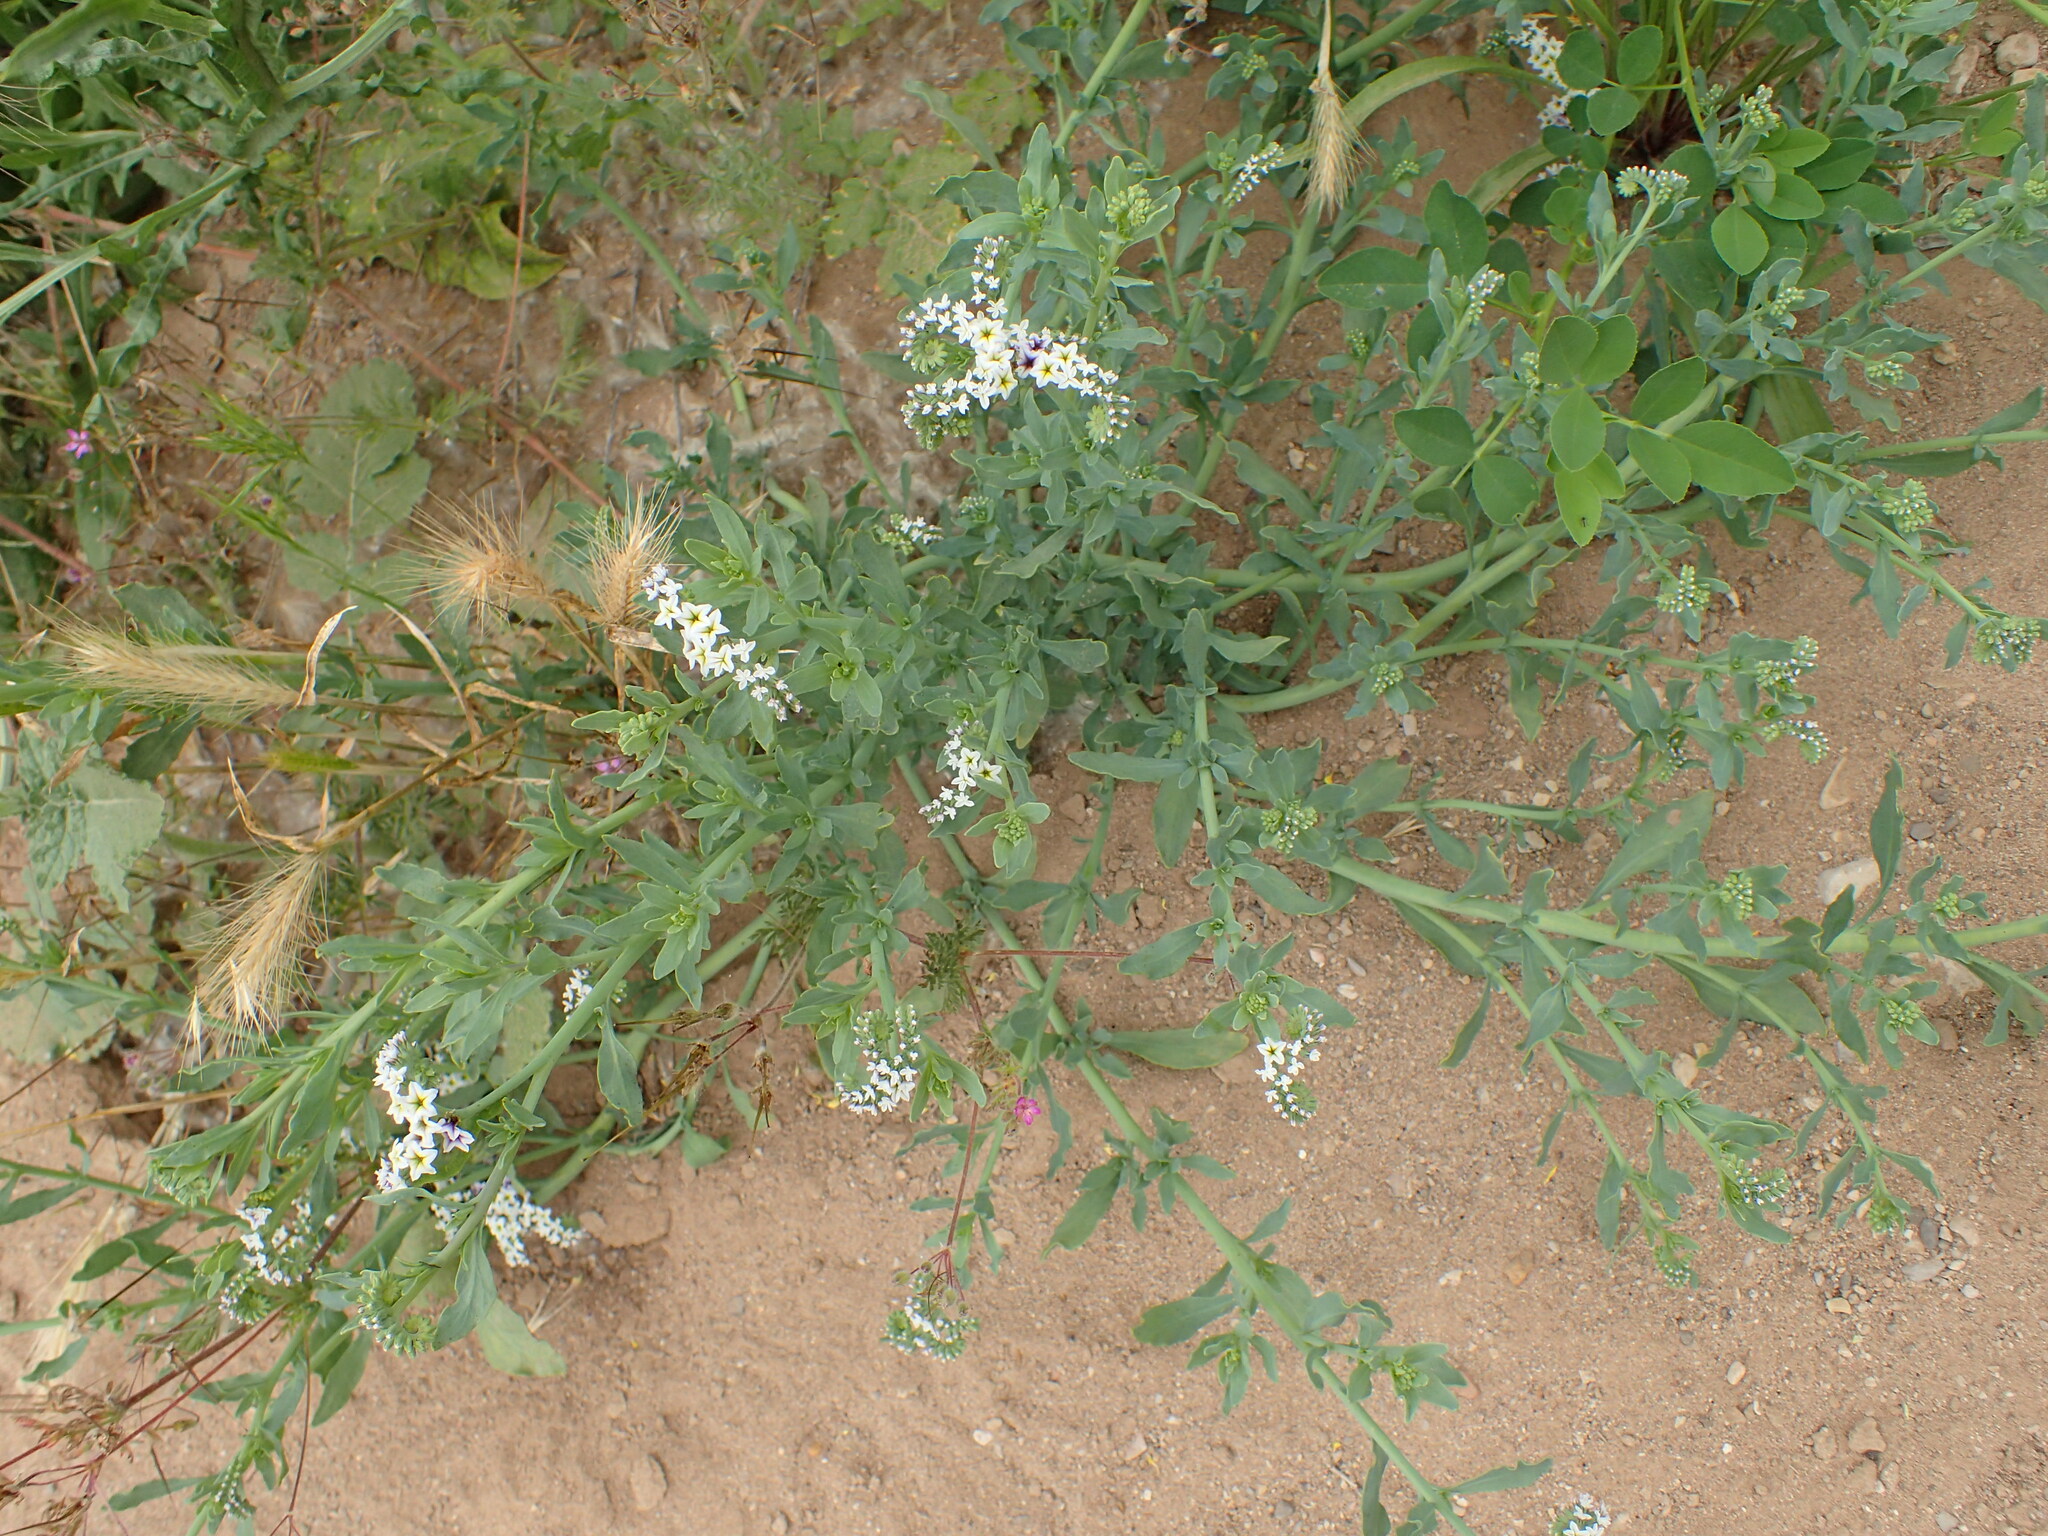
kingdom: Plantae
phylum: Tracheophyta
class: Magnoliopsida
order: Boraginales
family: Heliotropiaceae
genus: Heliotropium
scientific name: Heliotropium curassavicum
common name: Seaside heliotrope
